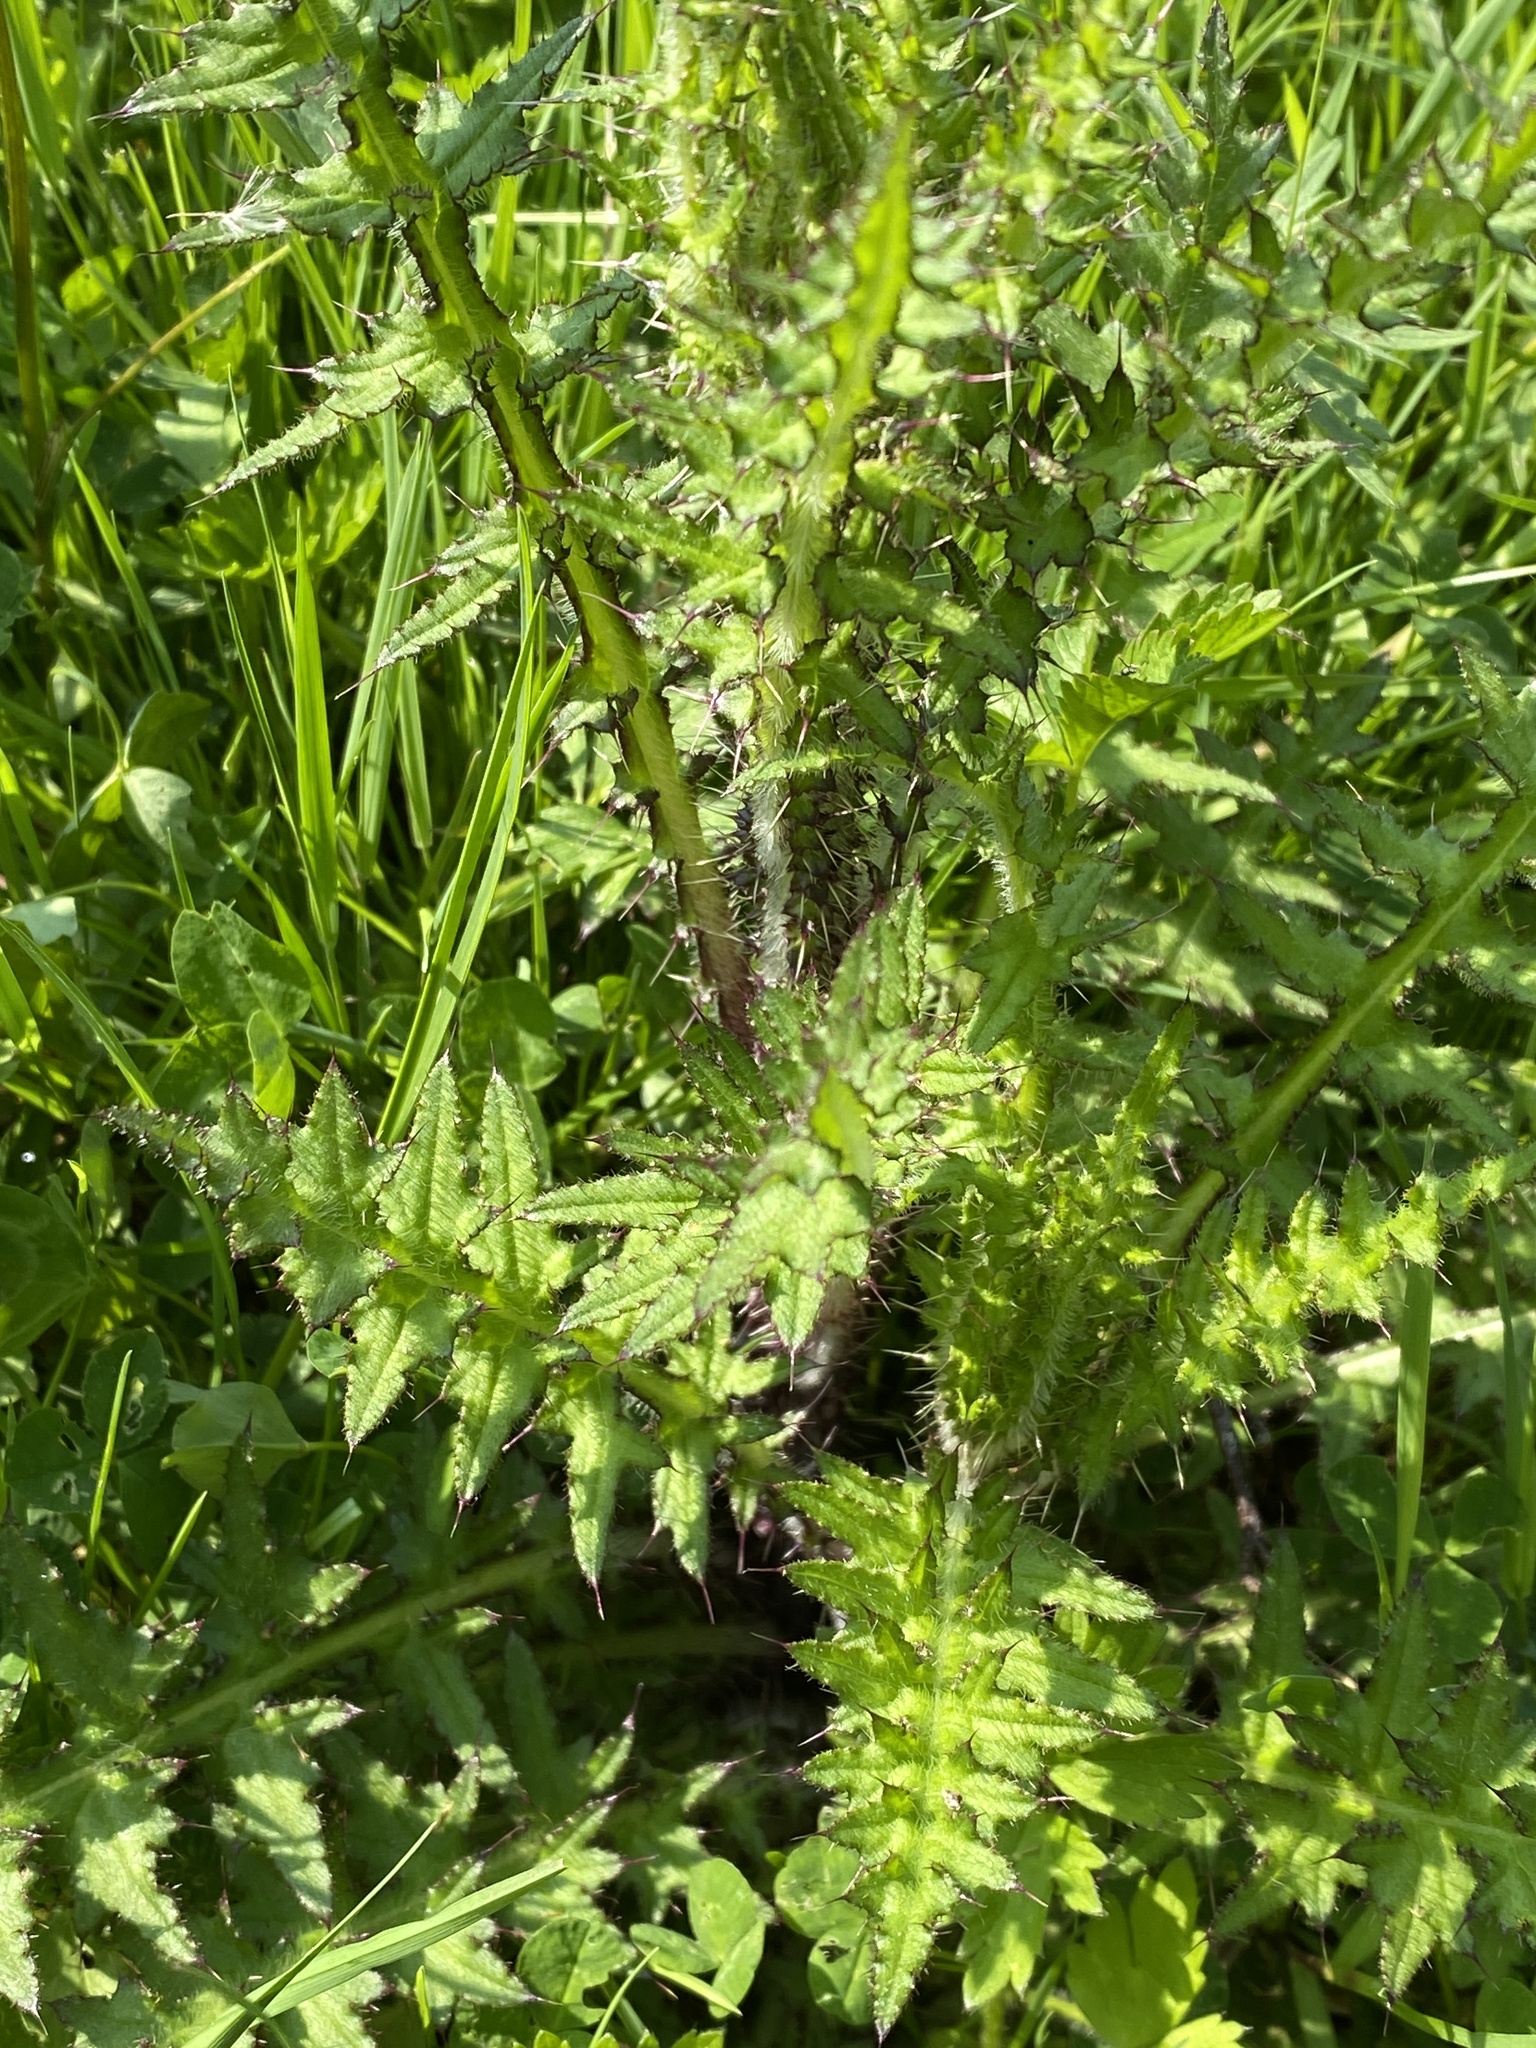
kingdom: Plantae
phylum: Tracheophyta
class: Magnoliopsida
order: Asterales
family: Asteraceae
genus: Cirsium
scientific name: Cirsium palustre
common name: Marsh thistle
